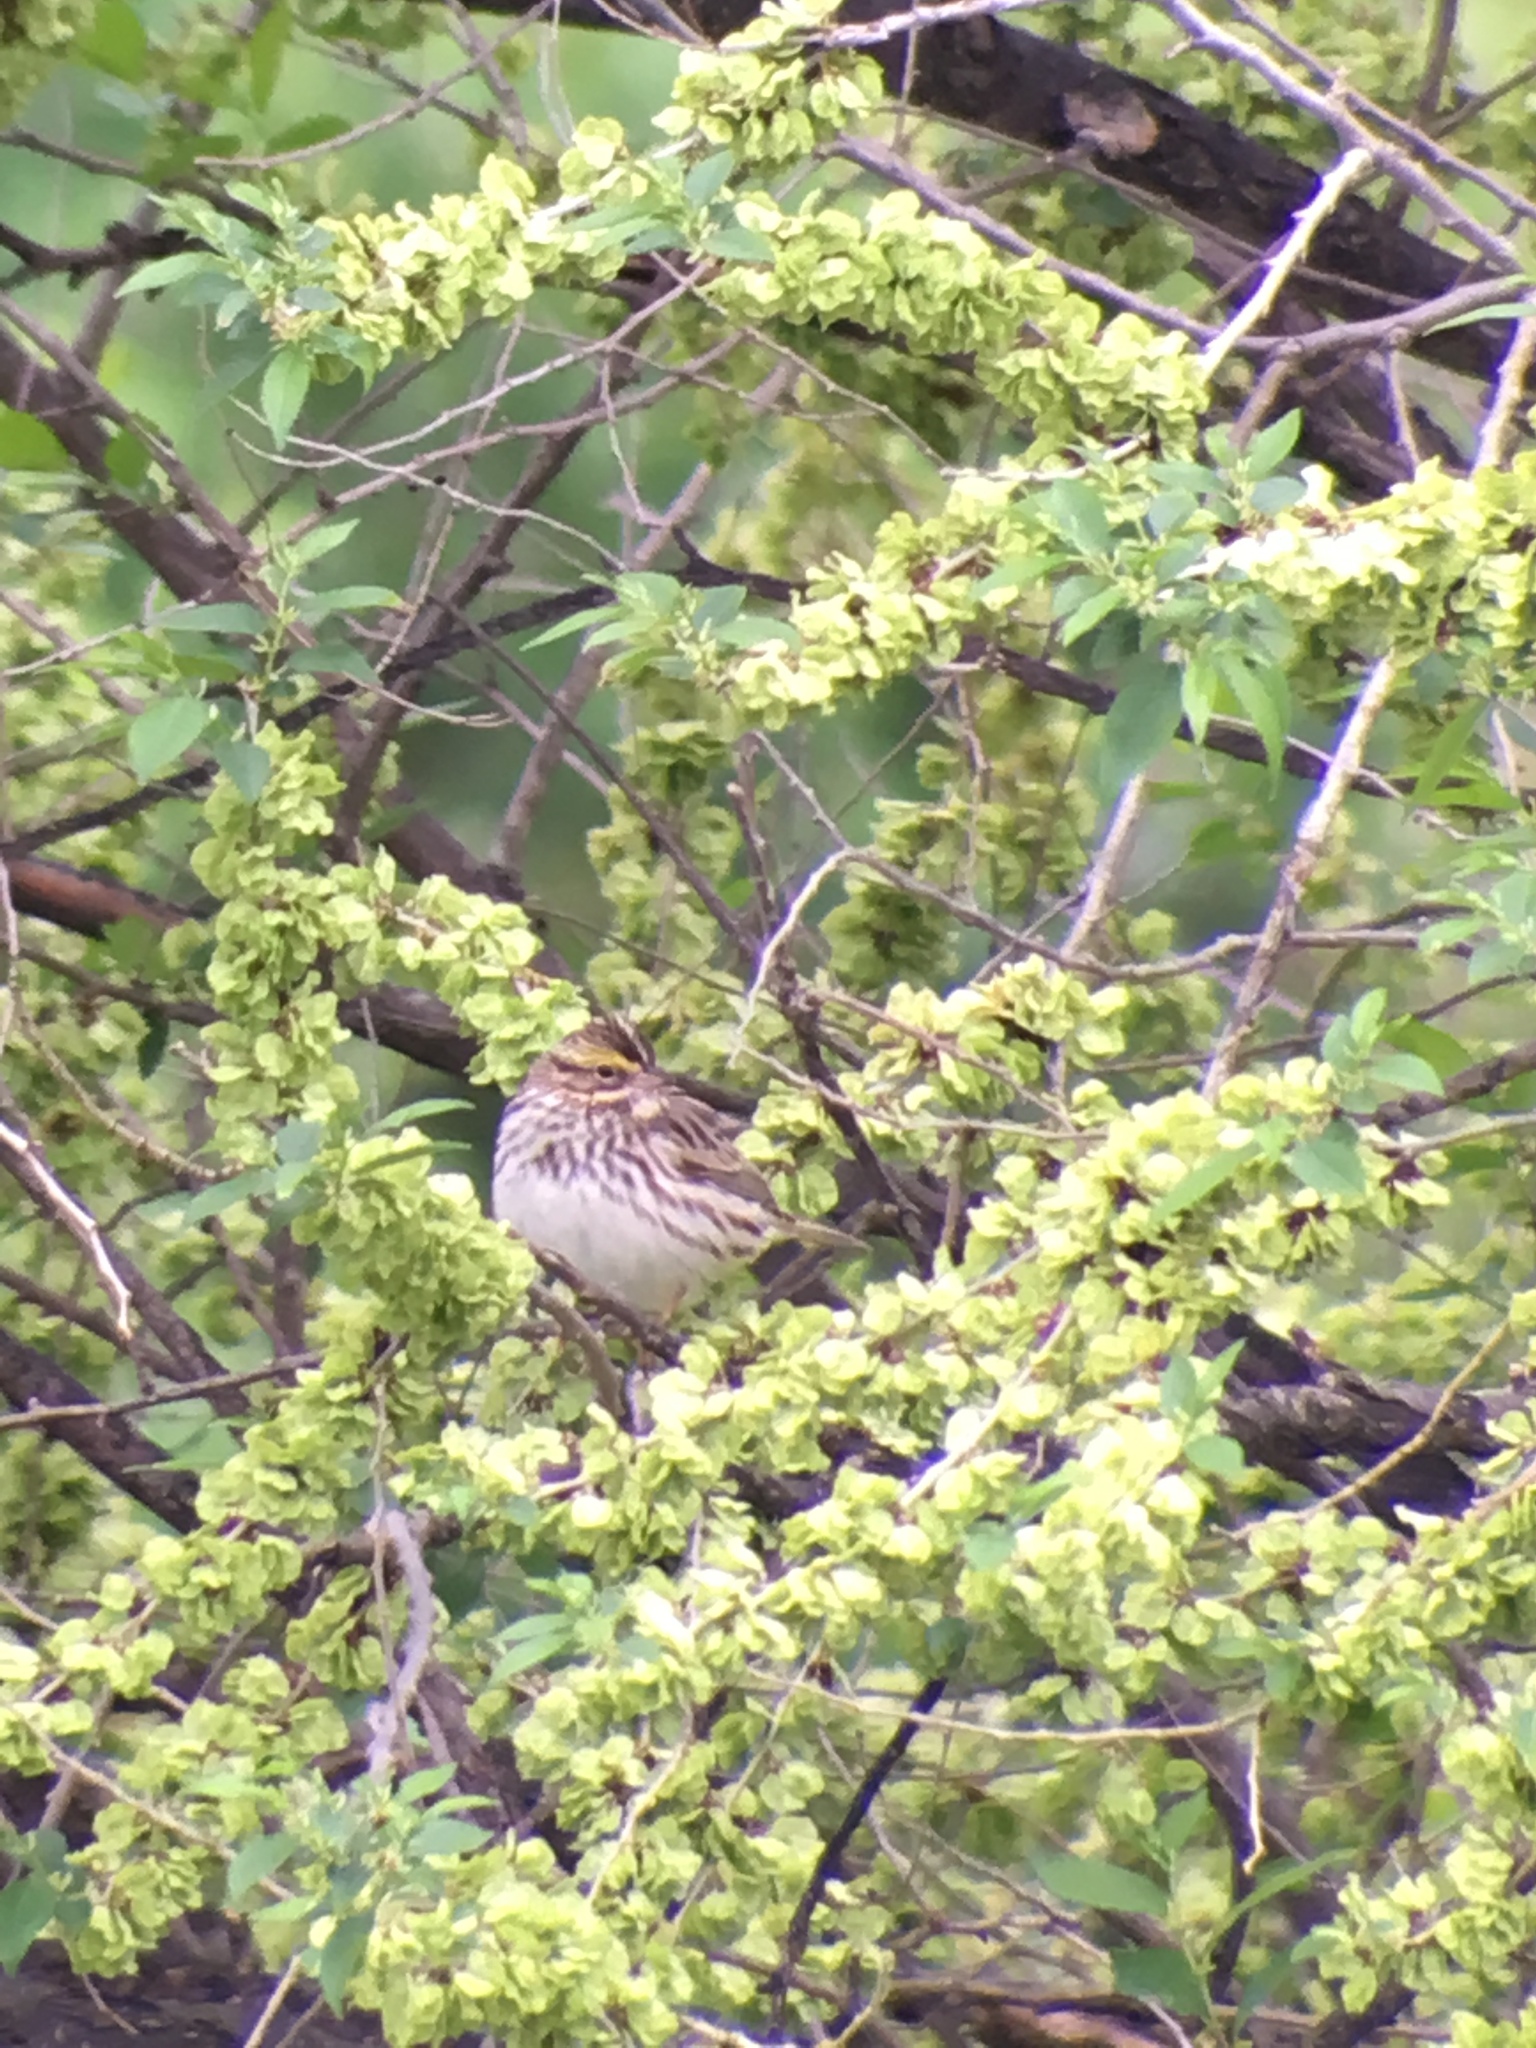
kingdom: Animalia
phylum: Chordata
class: Aves
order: Passeriformes
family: Passerellidae
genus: Passerculus
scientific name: Passerculus sandwichensis
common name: Savannah sparrow
